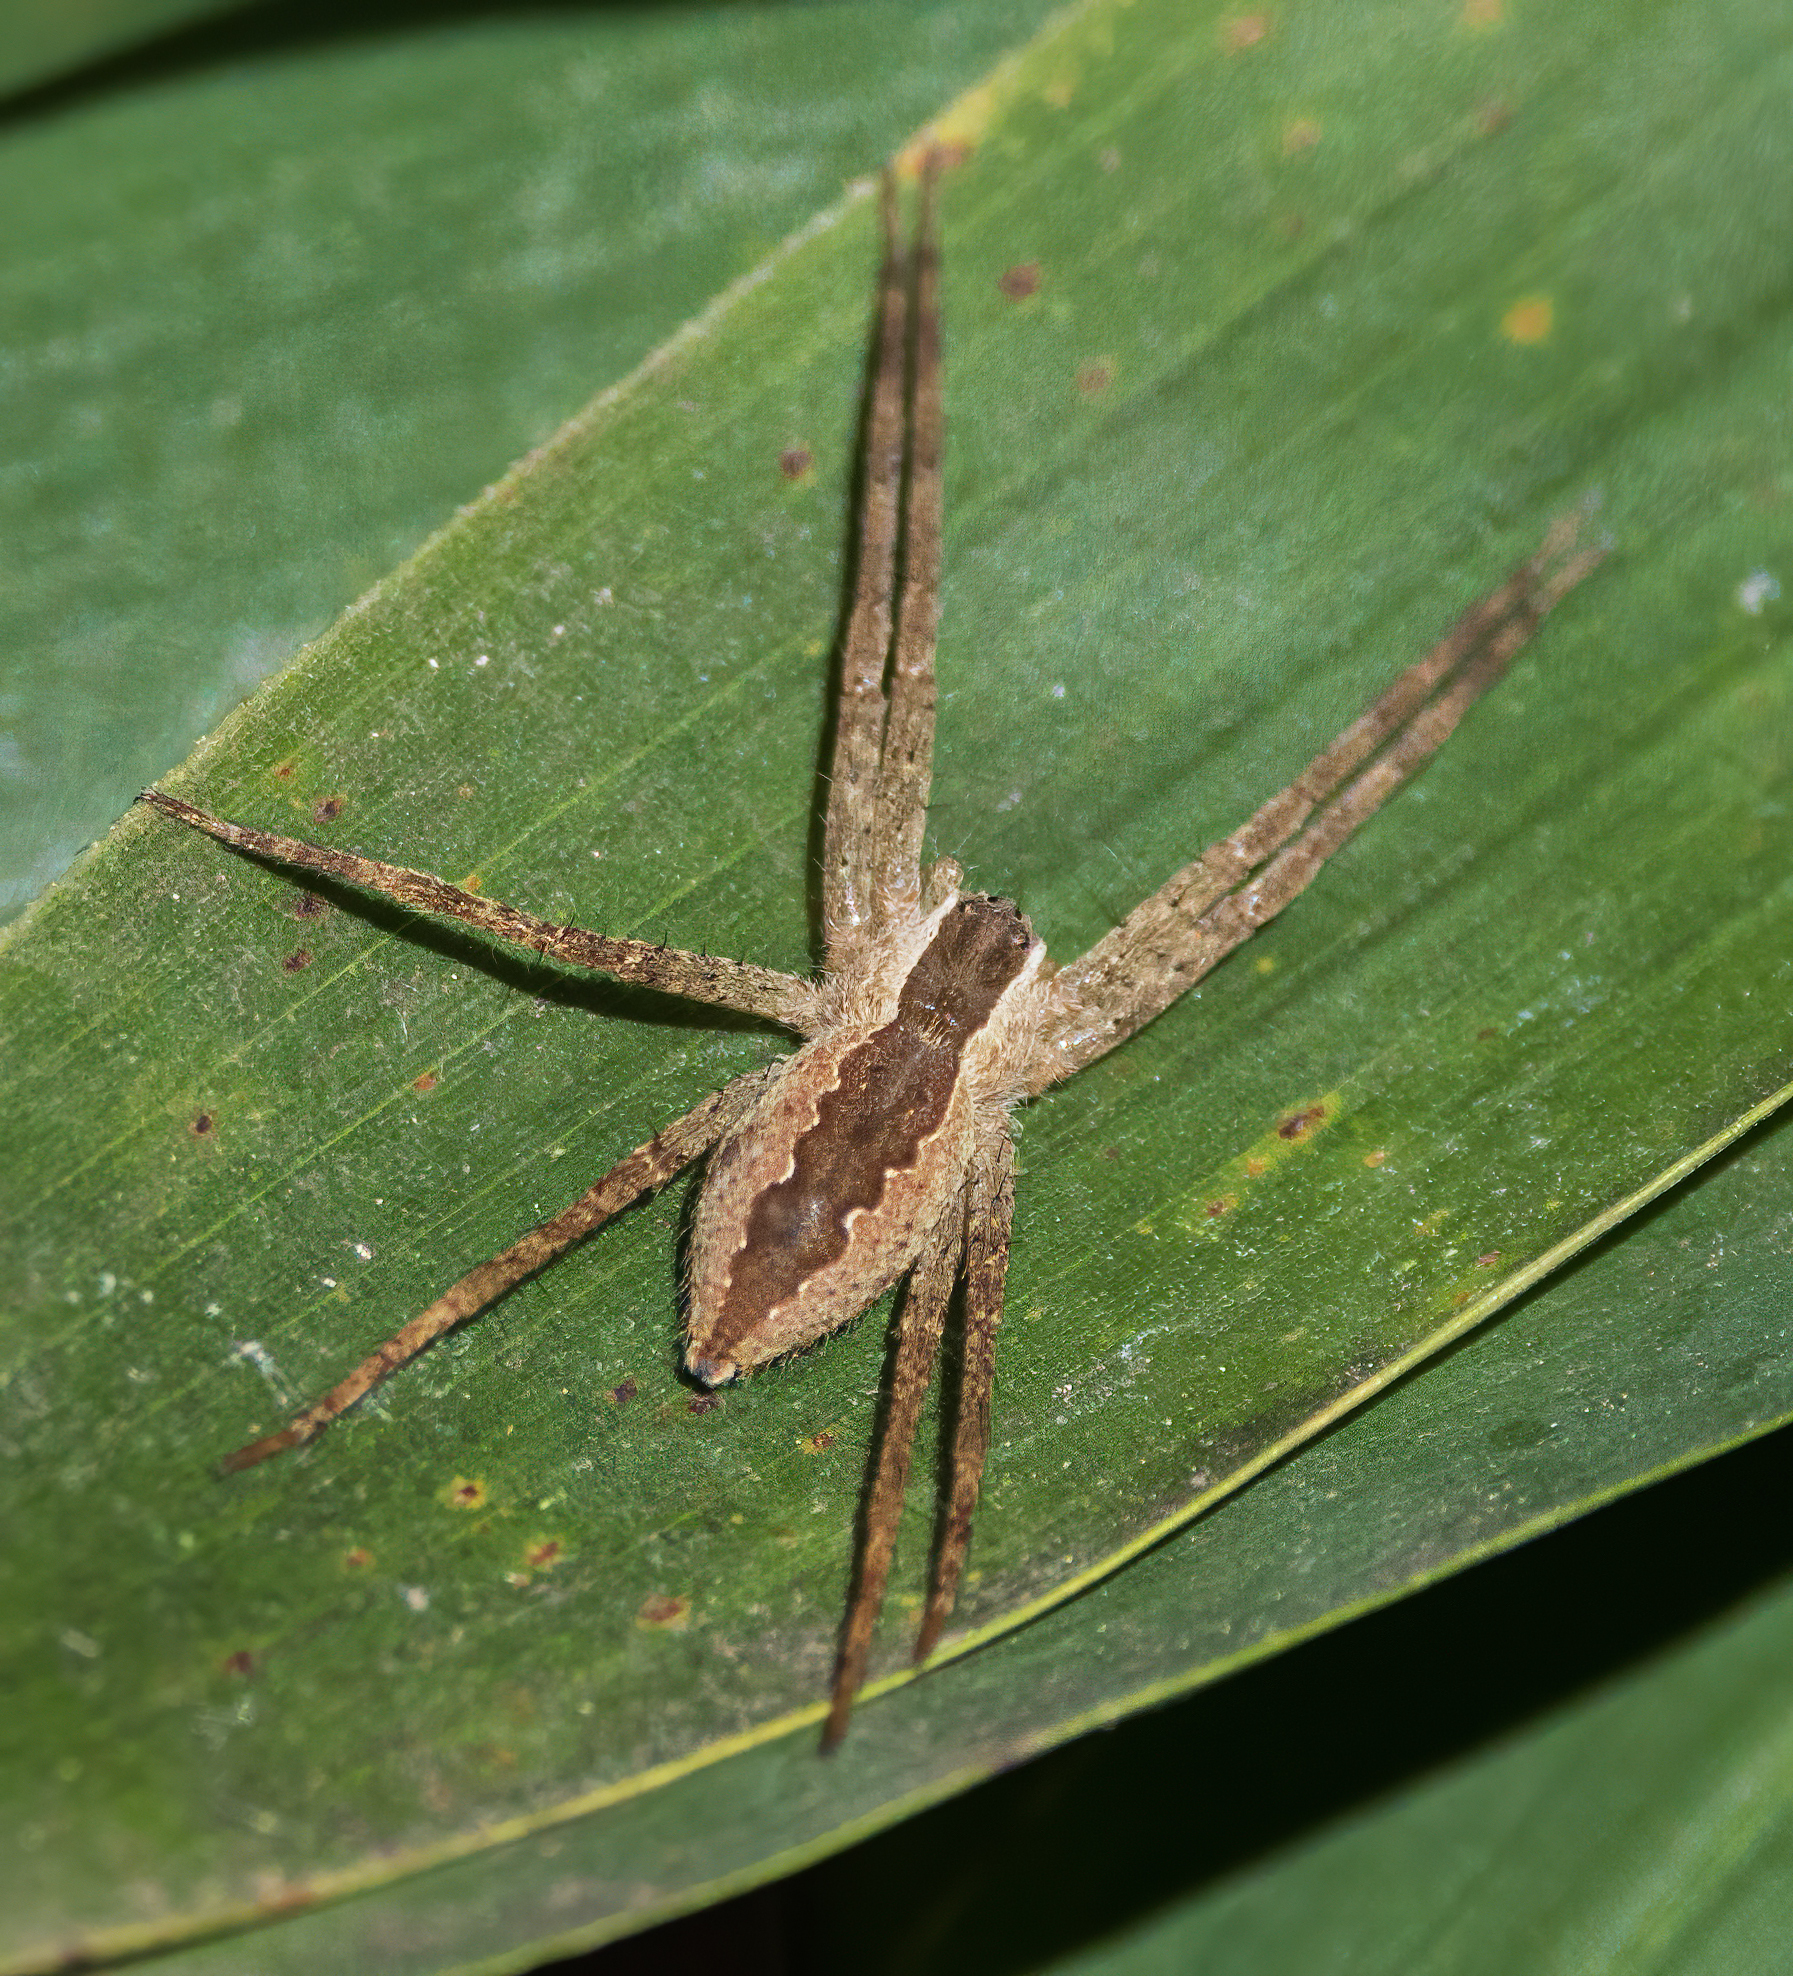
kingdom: Animalia
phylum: Arthropoda
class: Arachnida
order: Araneae
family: Pisauridae
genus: Pisaurina
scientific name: Pisaurina mira
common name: American nursery web spider
